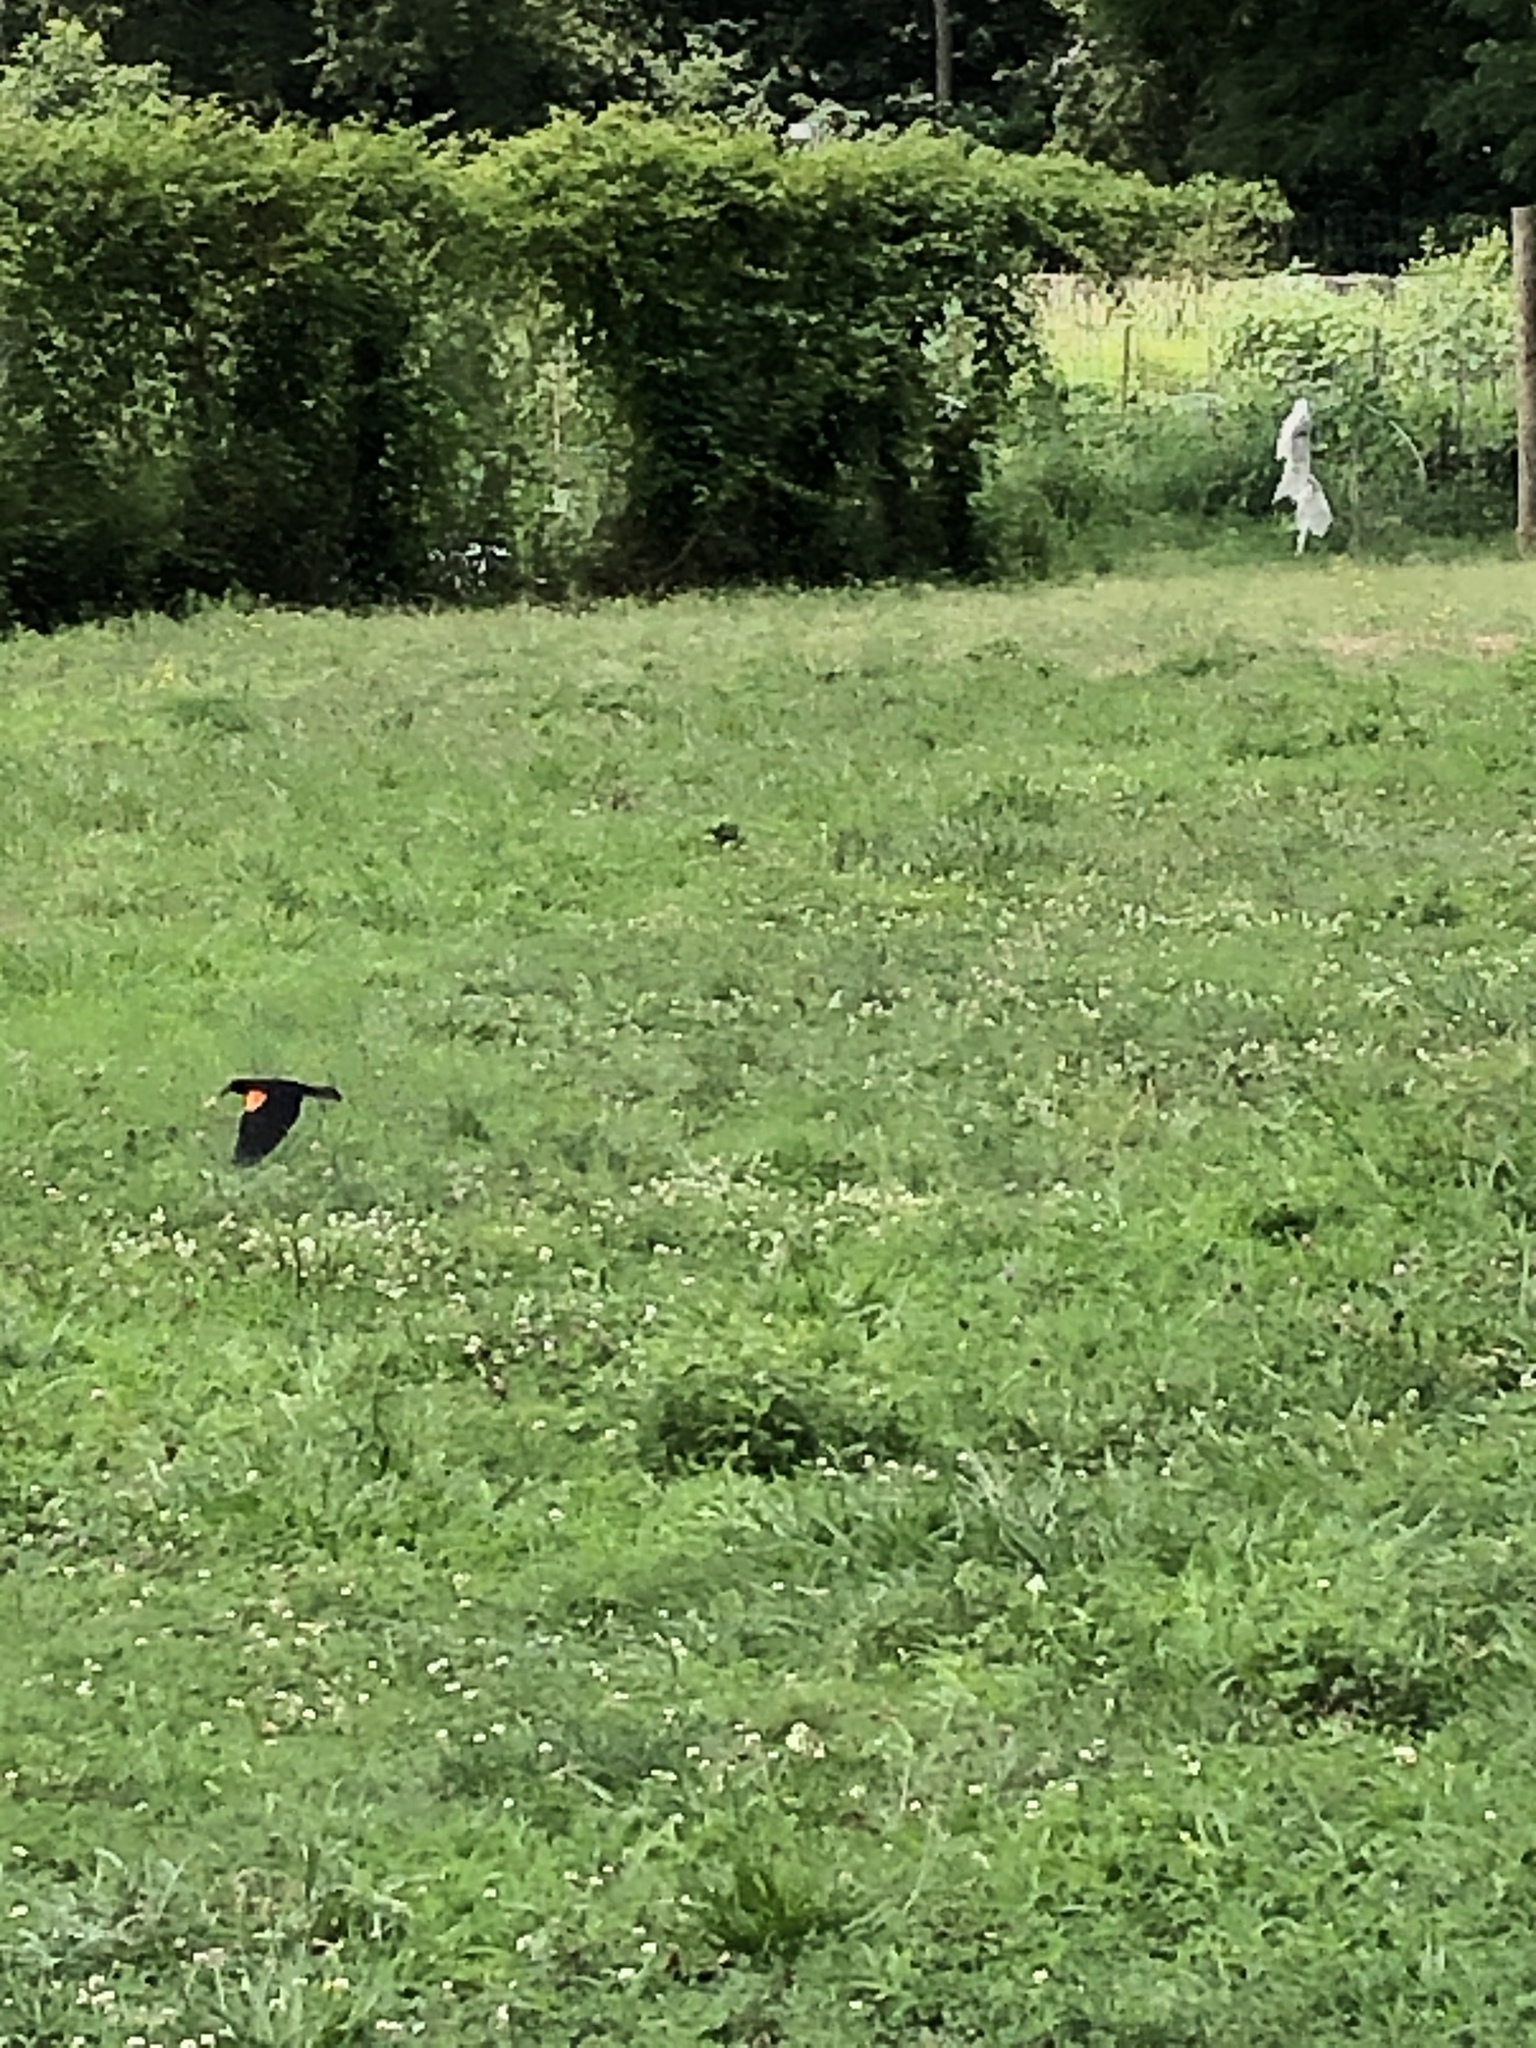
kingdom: Animalia
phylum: Chordata
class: Aves
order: Passeriformes
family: Icteridae
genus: Agelaius
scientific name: Agelaius phoeniceus
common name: Red-winged blackbird
